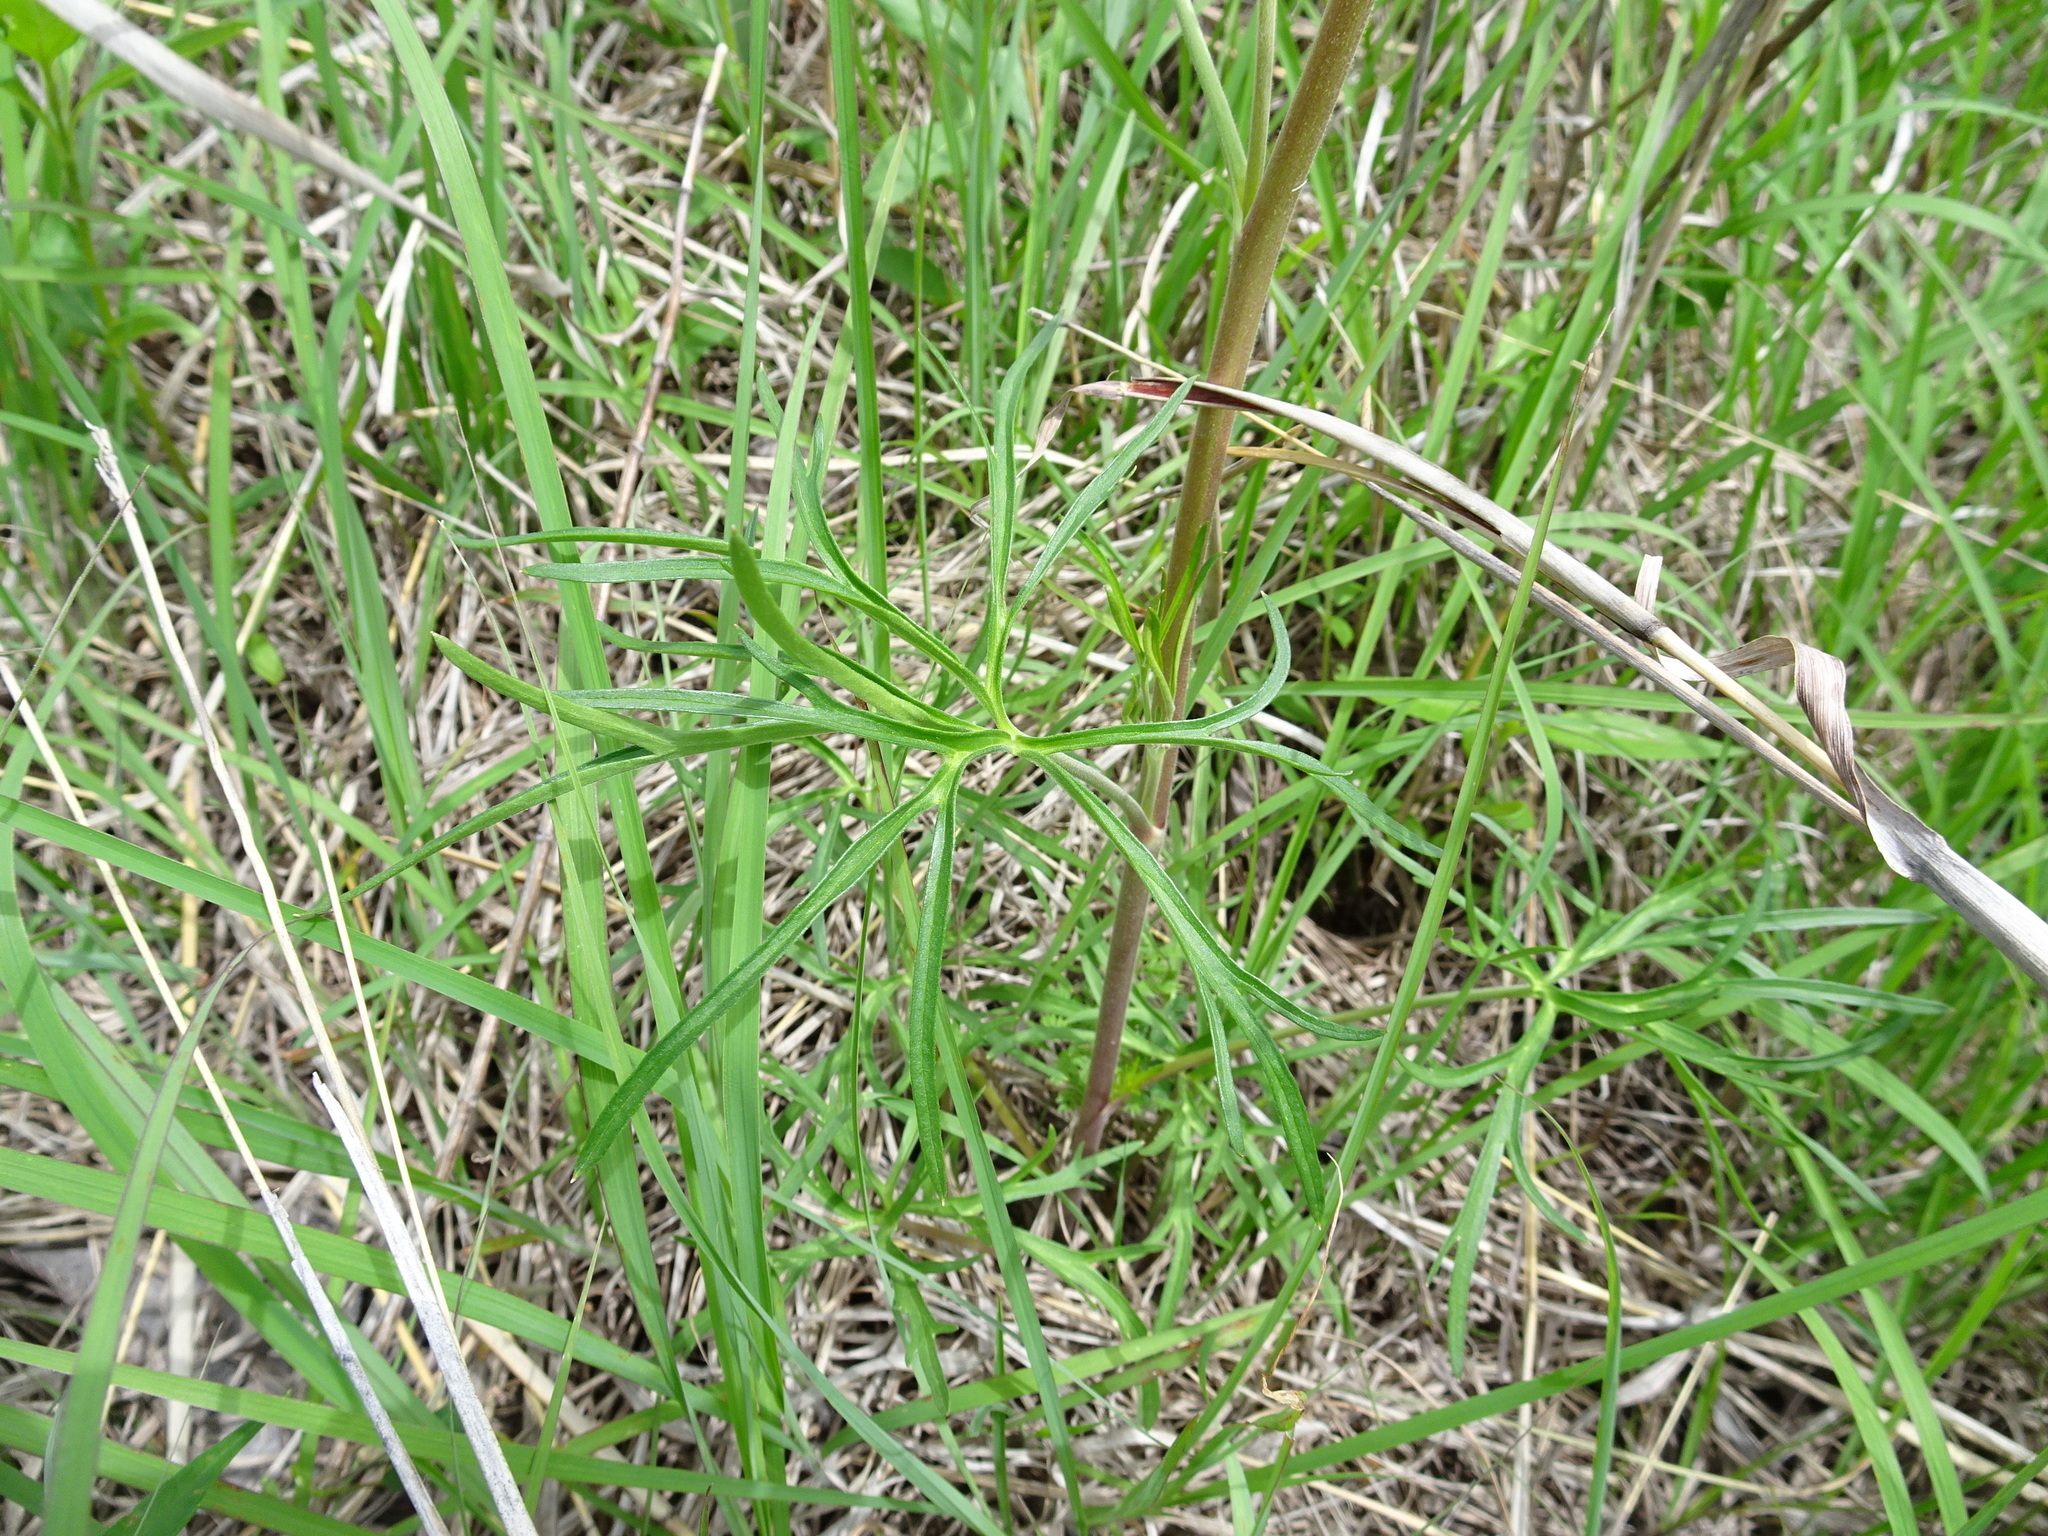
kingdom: Plantae
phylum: Tracheophyta
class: Magnoliopsida
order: Ranunculales
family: Ranunculaceae
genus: Delphinium
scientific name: Delphinium carolinianum
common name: Carolina larkspur
